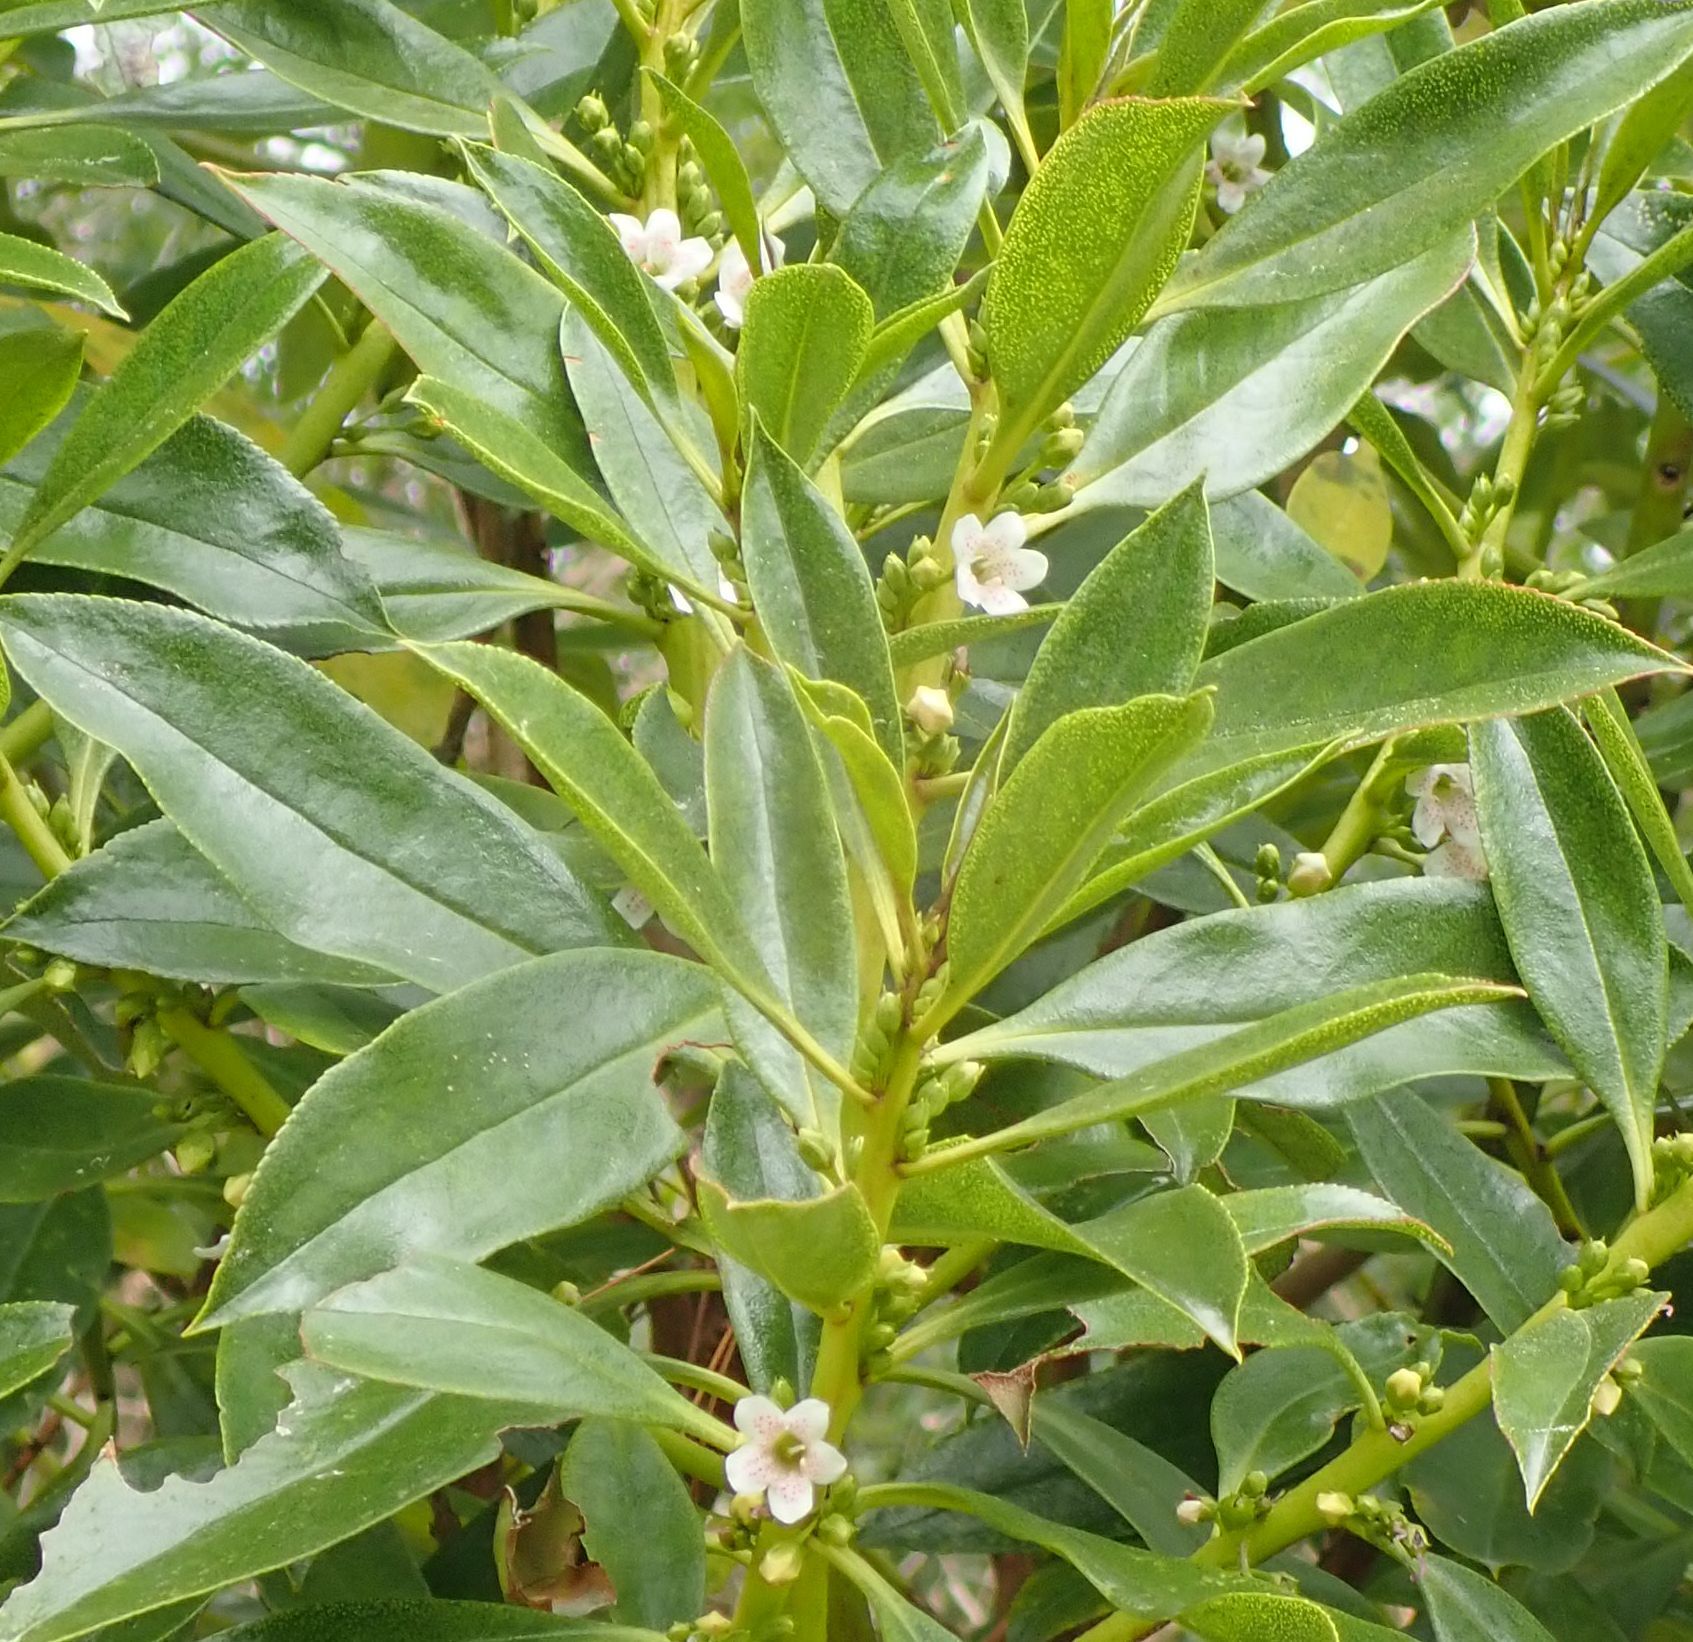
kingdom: Plantae
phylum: Tracheophyta
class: Magnoliopsida
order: Lamiales
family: Scrophulariaceae
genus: Myoporum
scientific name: Myoporum insulare
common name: Common boobialla
